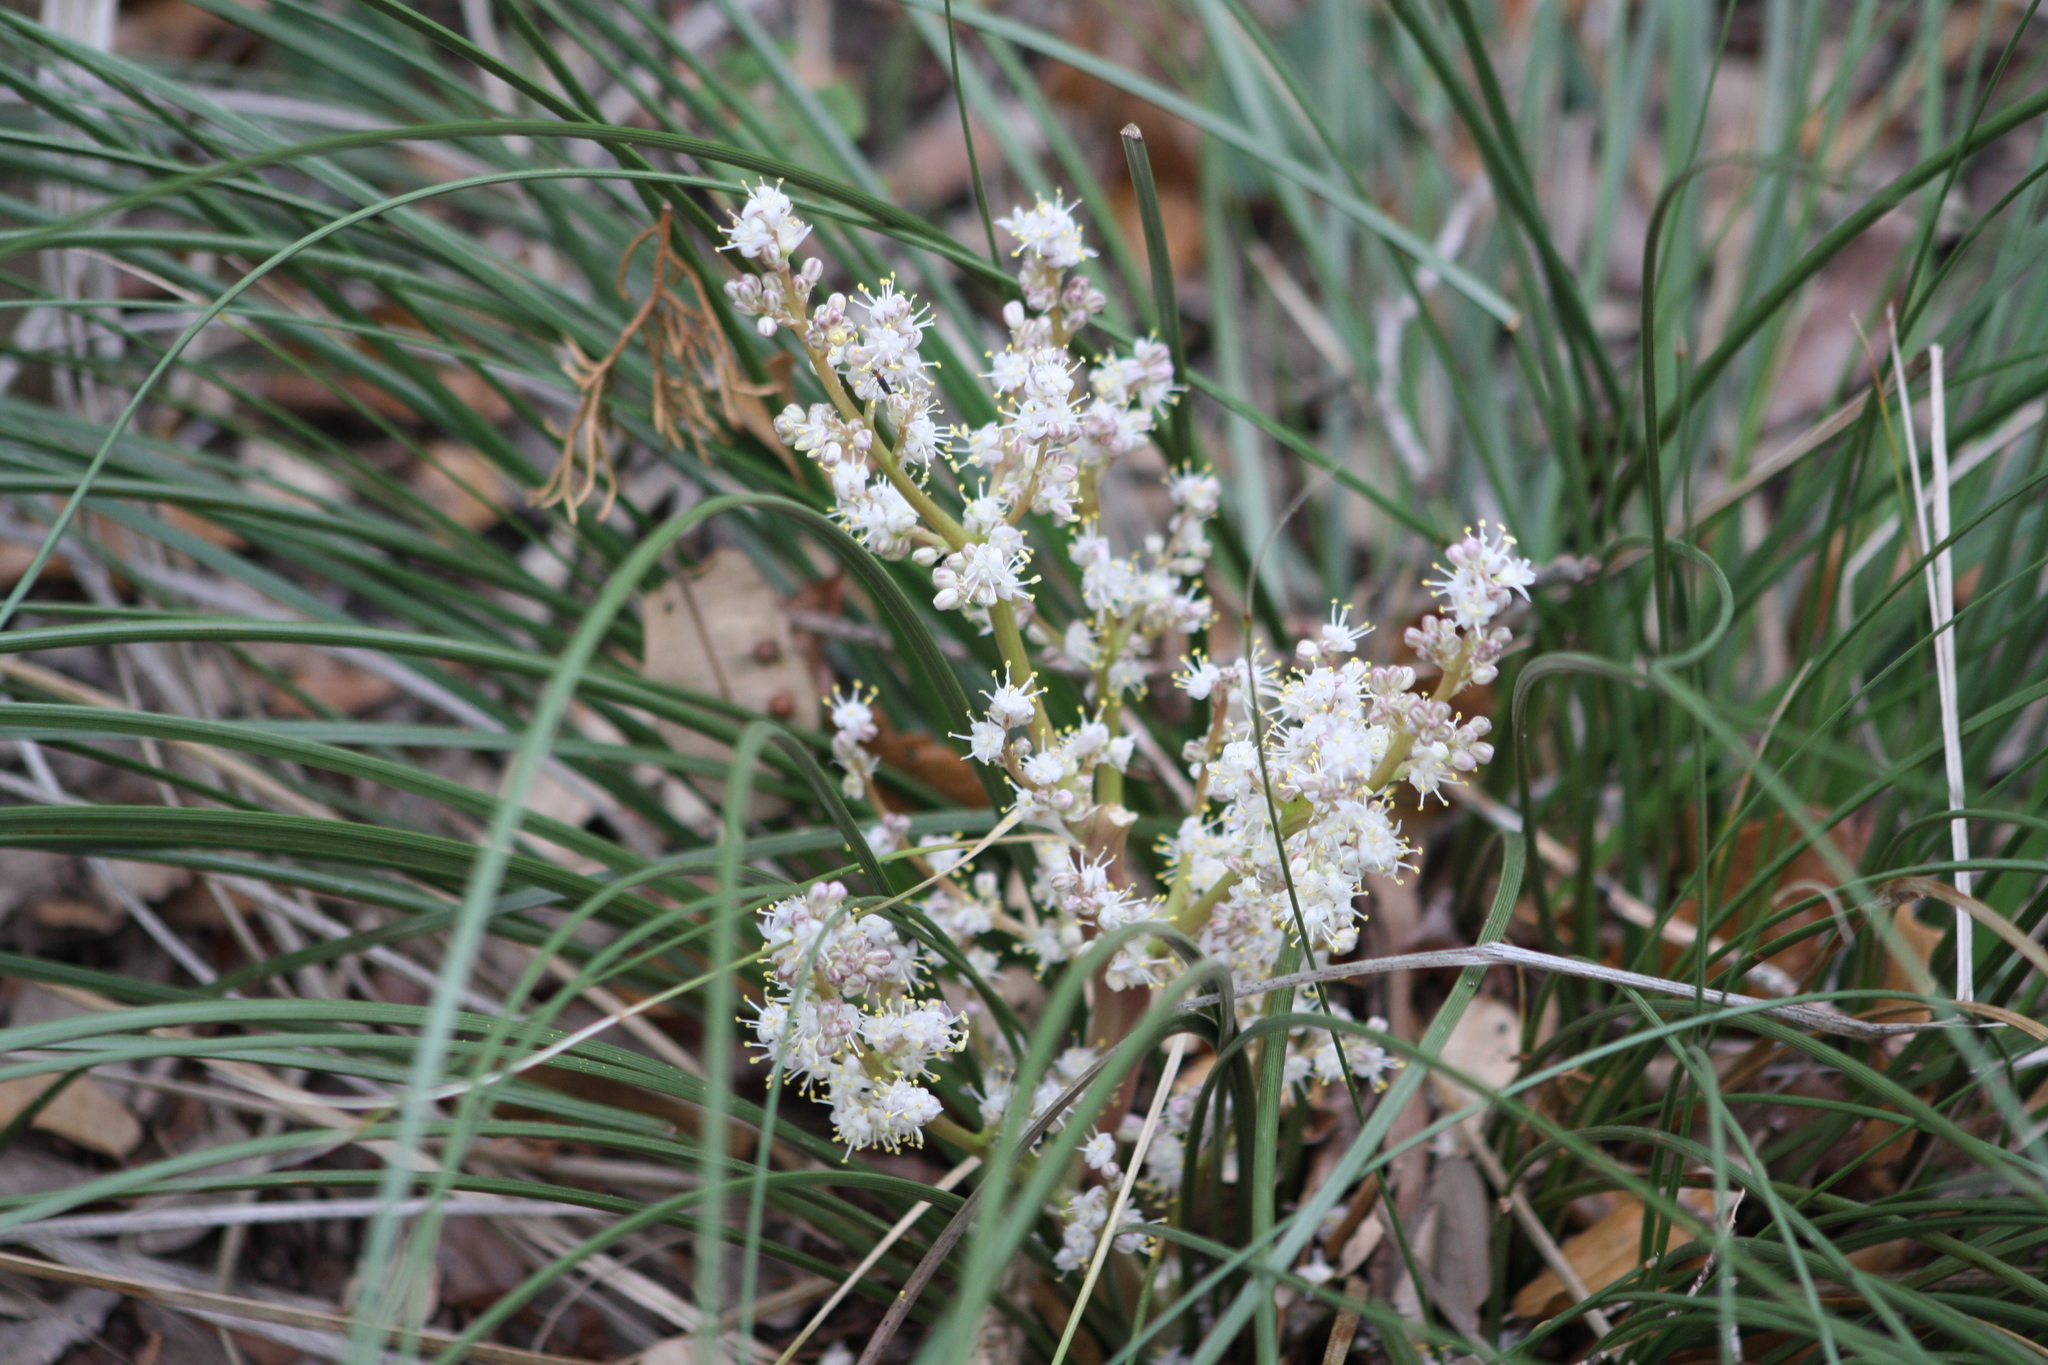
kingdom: Plantae
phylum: Tracheophyta
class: Liliopsida
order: Asparagales
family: Asparagaceae
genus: Nolina
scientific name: Nolina texana
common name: Texas sacahuiste
